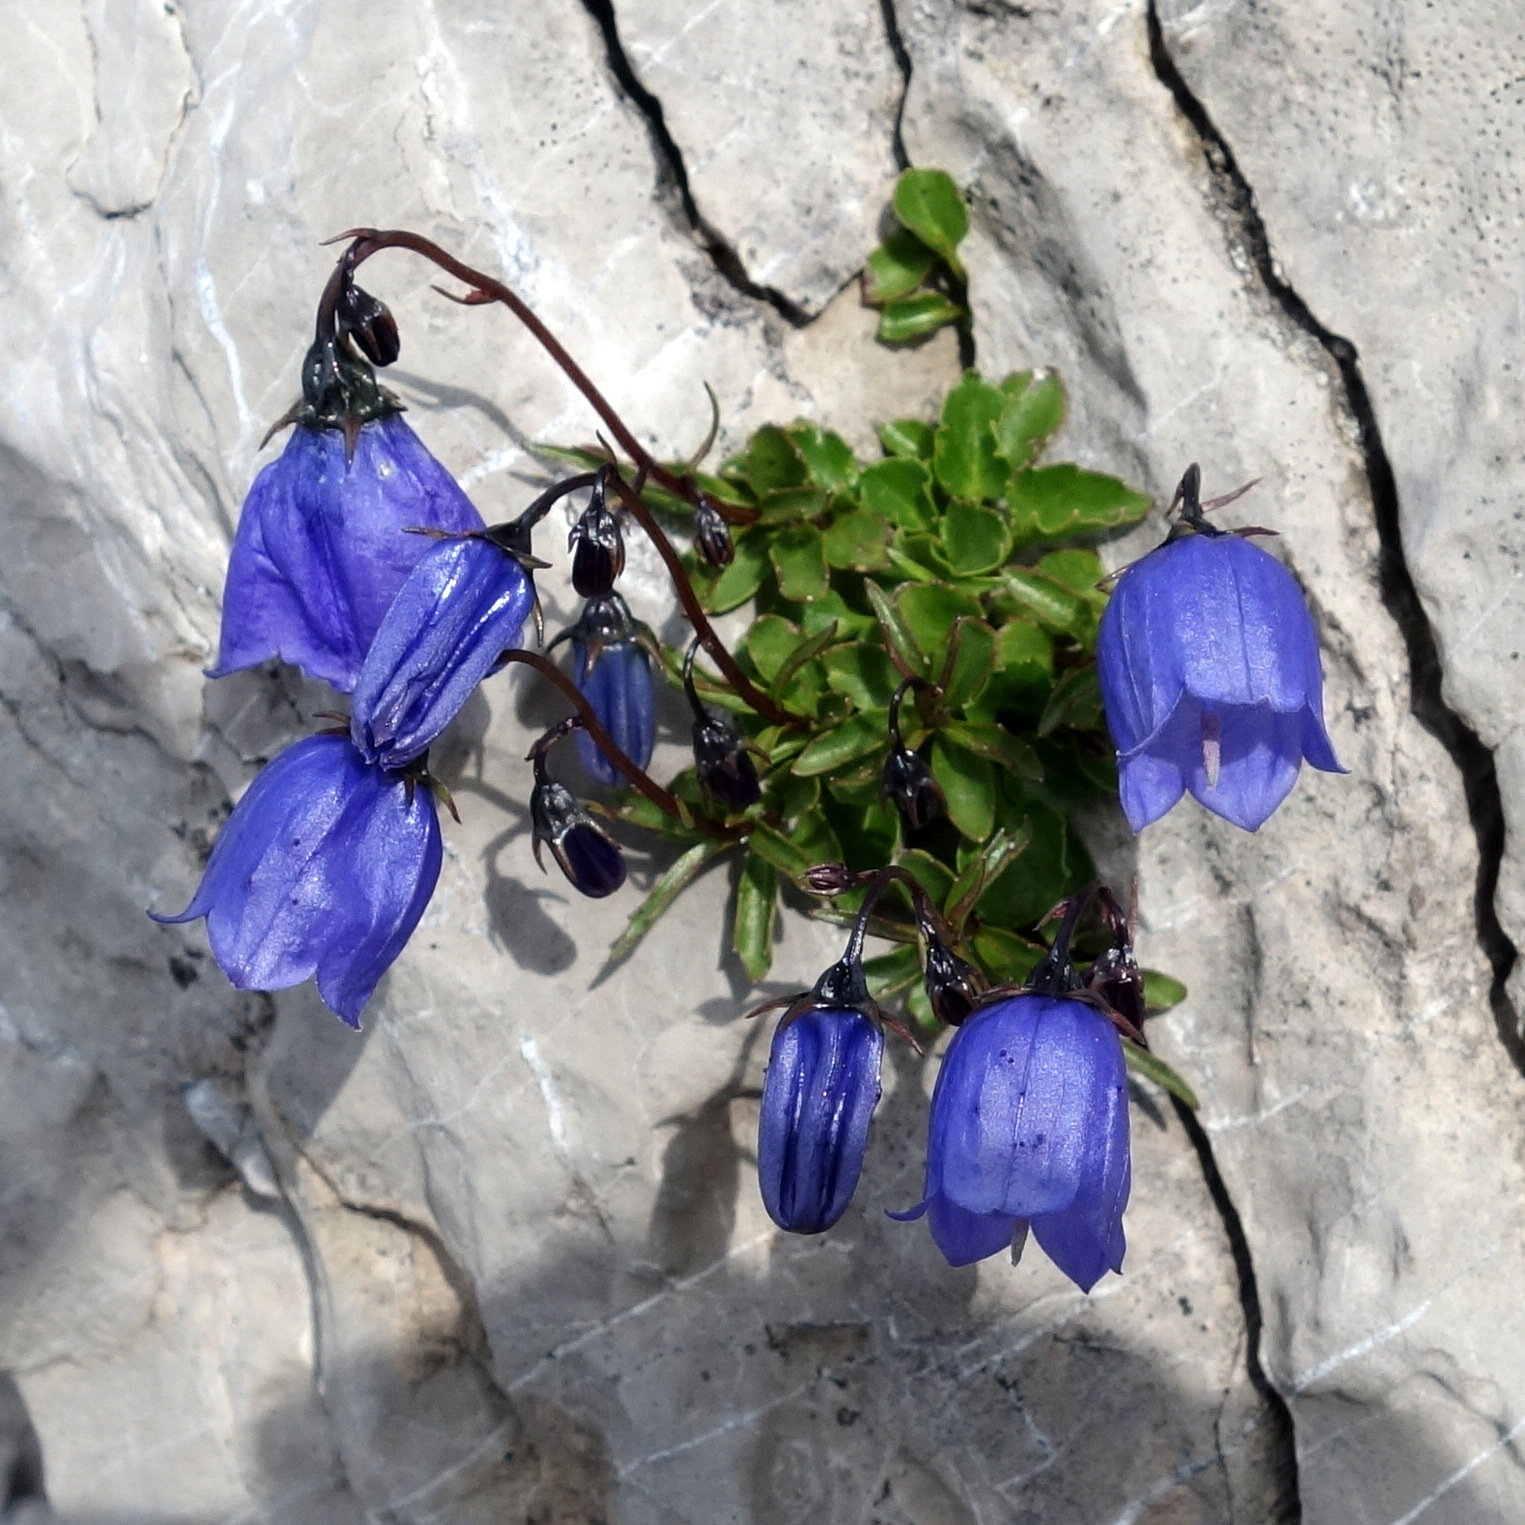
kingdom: Plantae
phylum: Tracheophyta
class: Magnoliopsida
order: Asterales
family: Campanulaceae
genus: Campanula
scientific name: Campanula cochleariifolia
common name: Fairies'-thimbles
